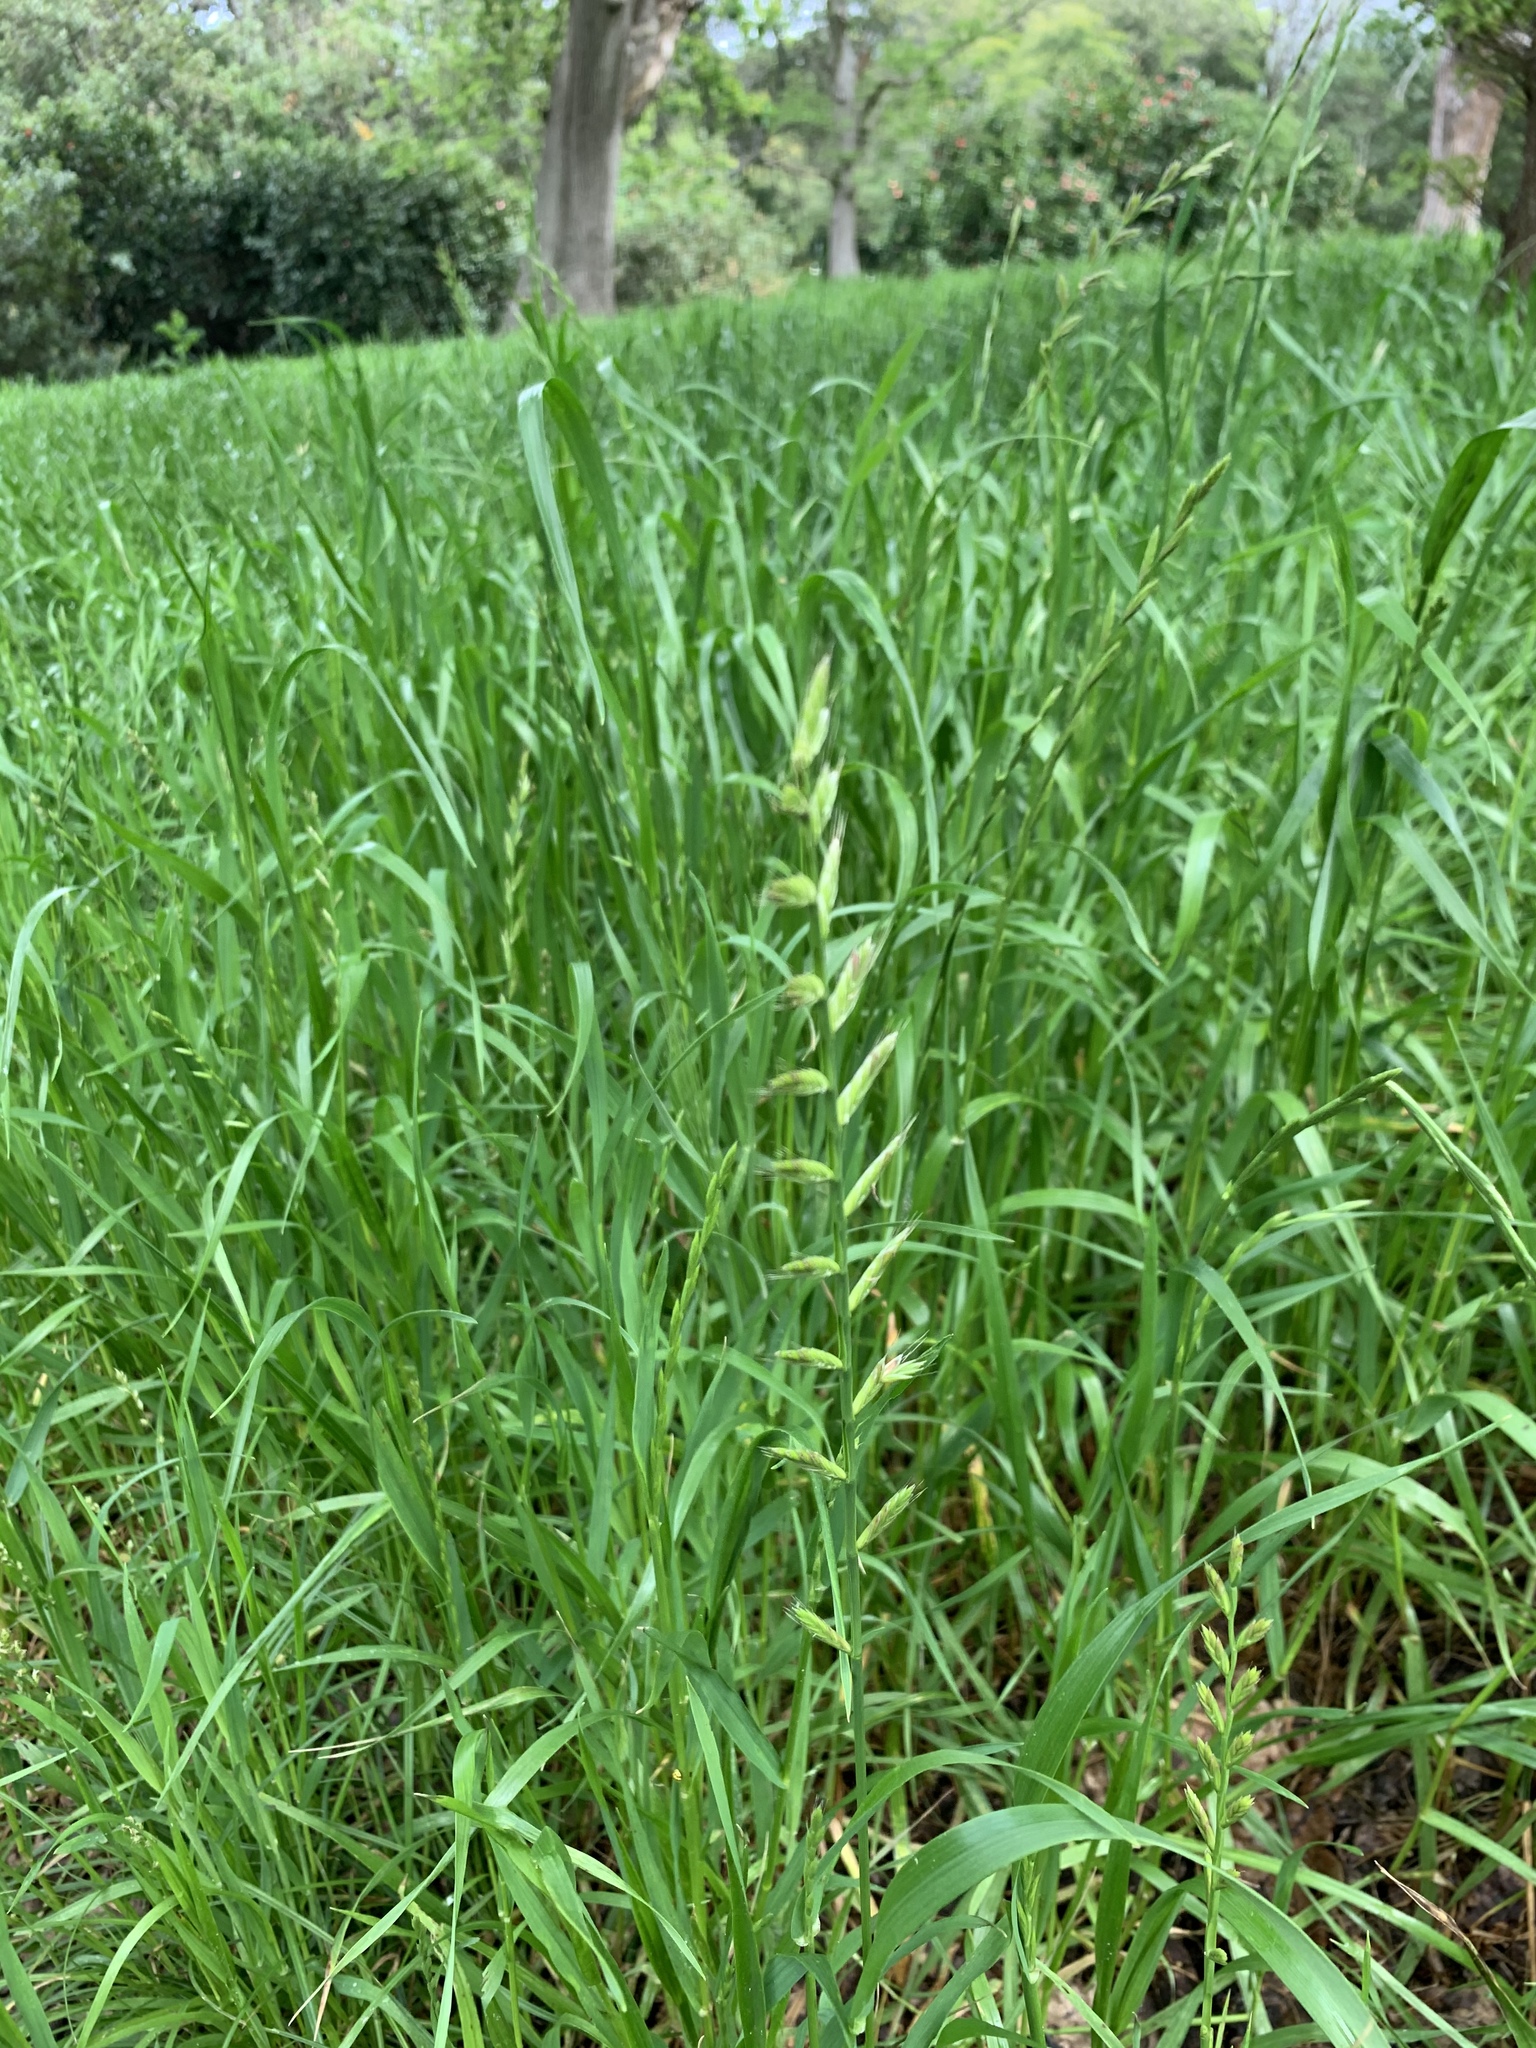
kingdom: Plantae
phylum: Tracheophyta
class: Liliopsida
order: Poales
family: Poaceae
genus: Lolium
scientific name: Lolium multiflorum
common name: Annual ryegrass
